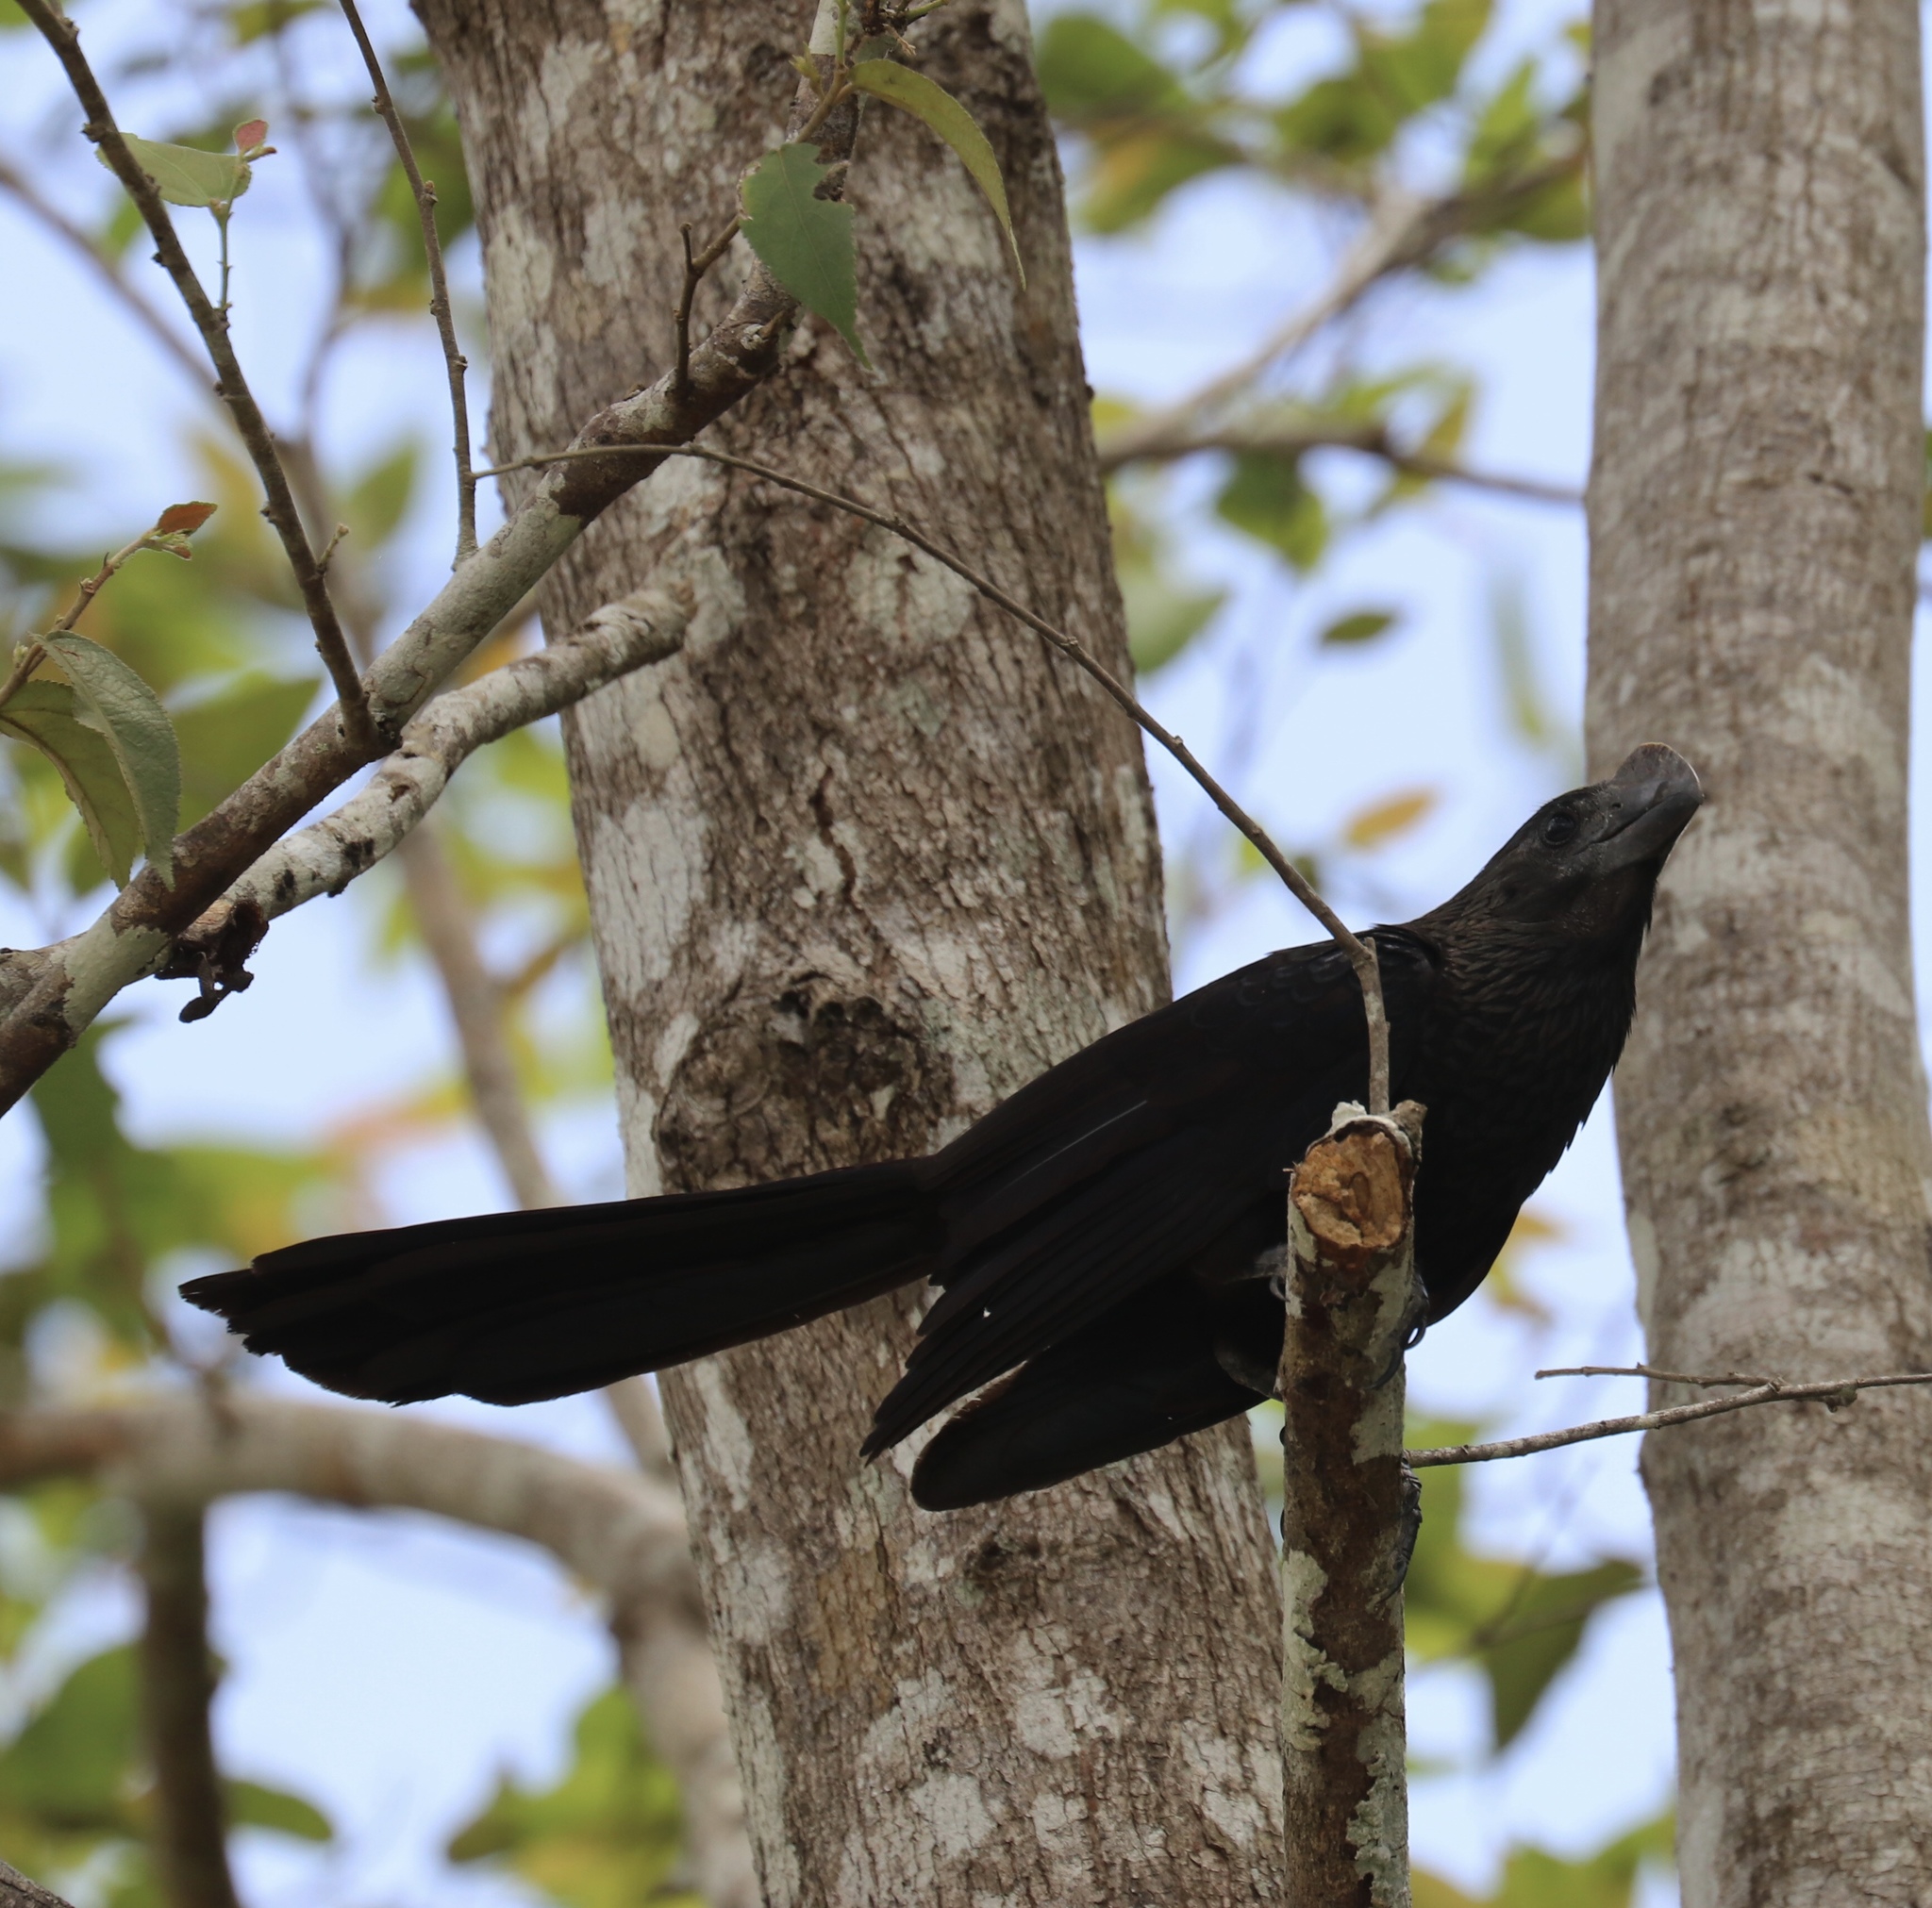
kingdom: Animalia
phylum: Chordata
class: Aves
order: Cuculiformes
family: Cuculidae
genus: Crotophaga
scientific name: Crotophaga ani
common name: Smooth-billed ani
